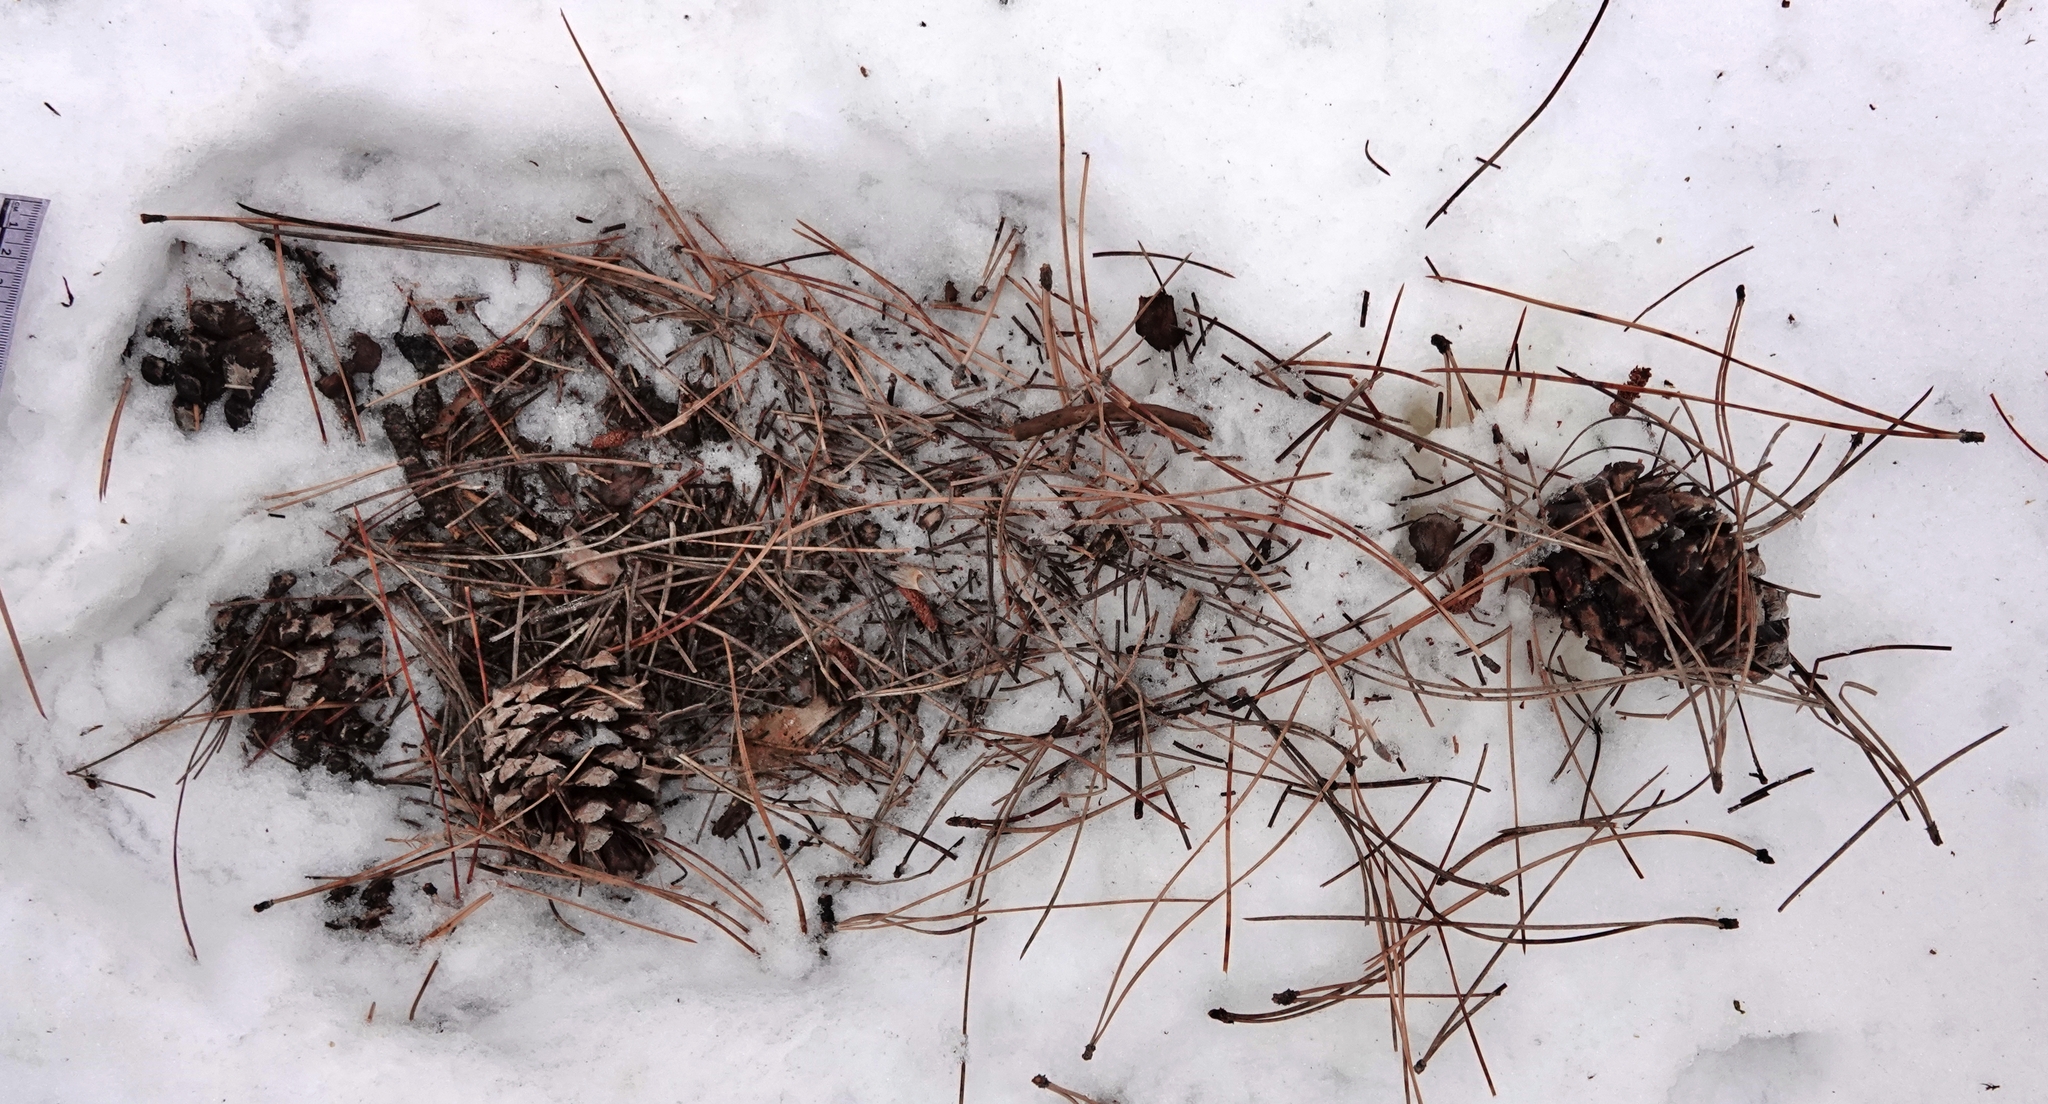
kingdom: Animalia
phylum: Chordata
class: Mammalia
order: Carnivora
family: Felidae
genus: Puma
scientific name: Puma concolor
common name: Puma
